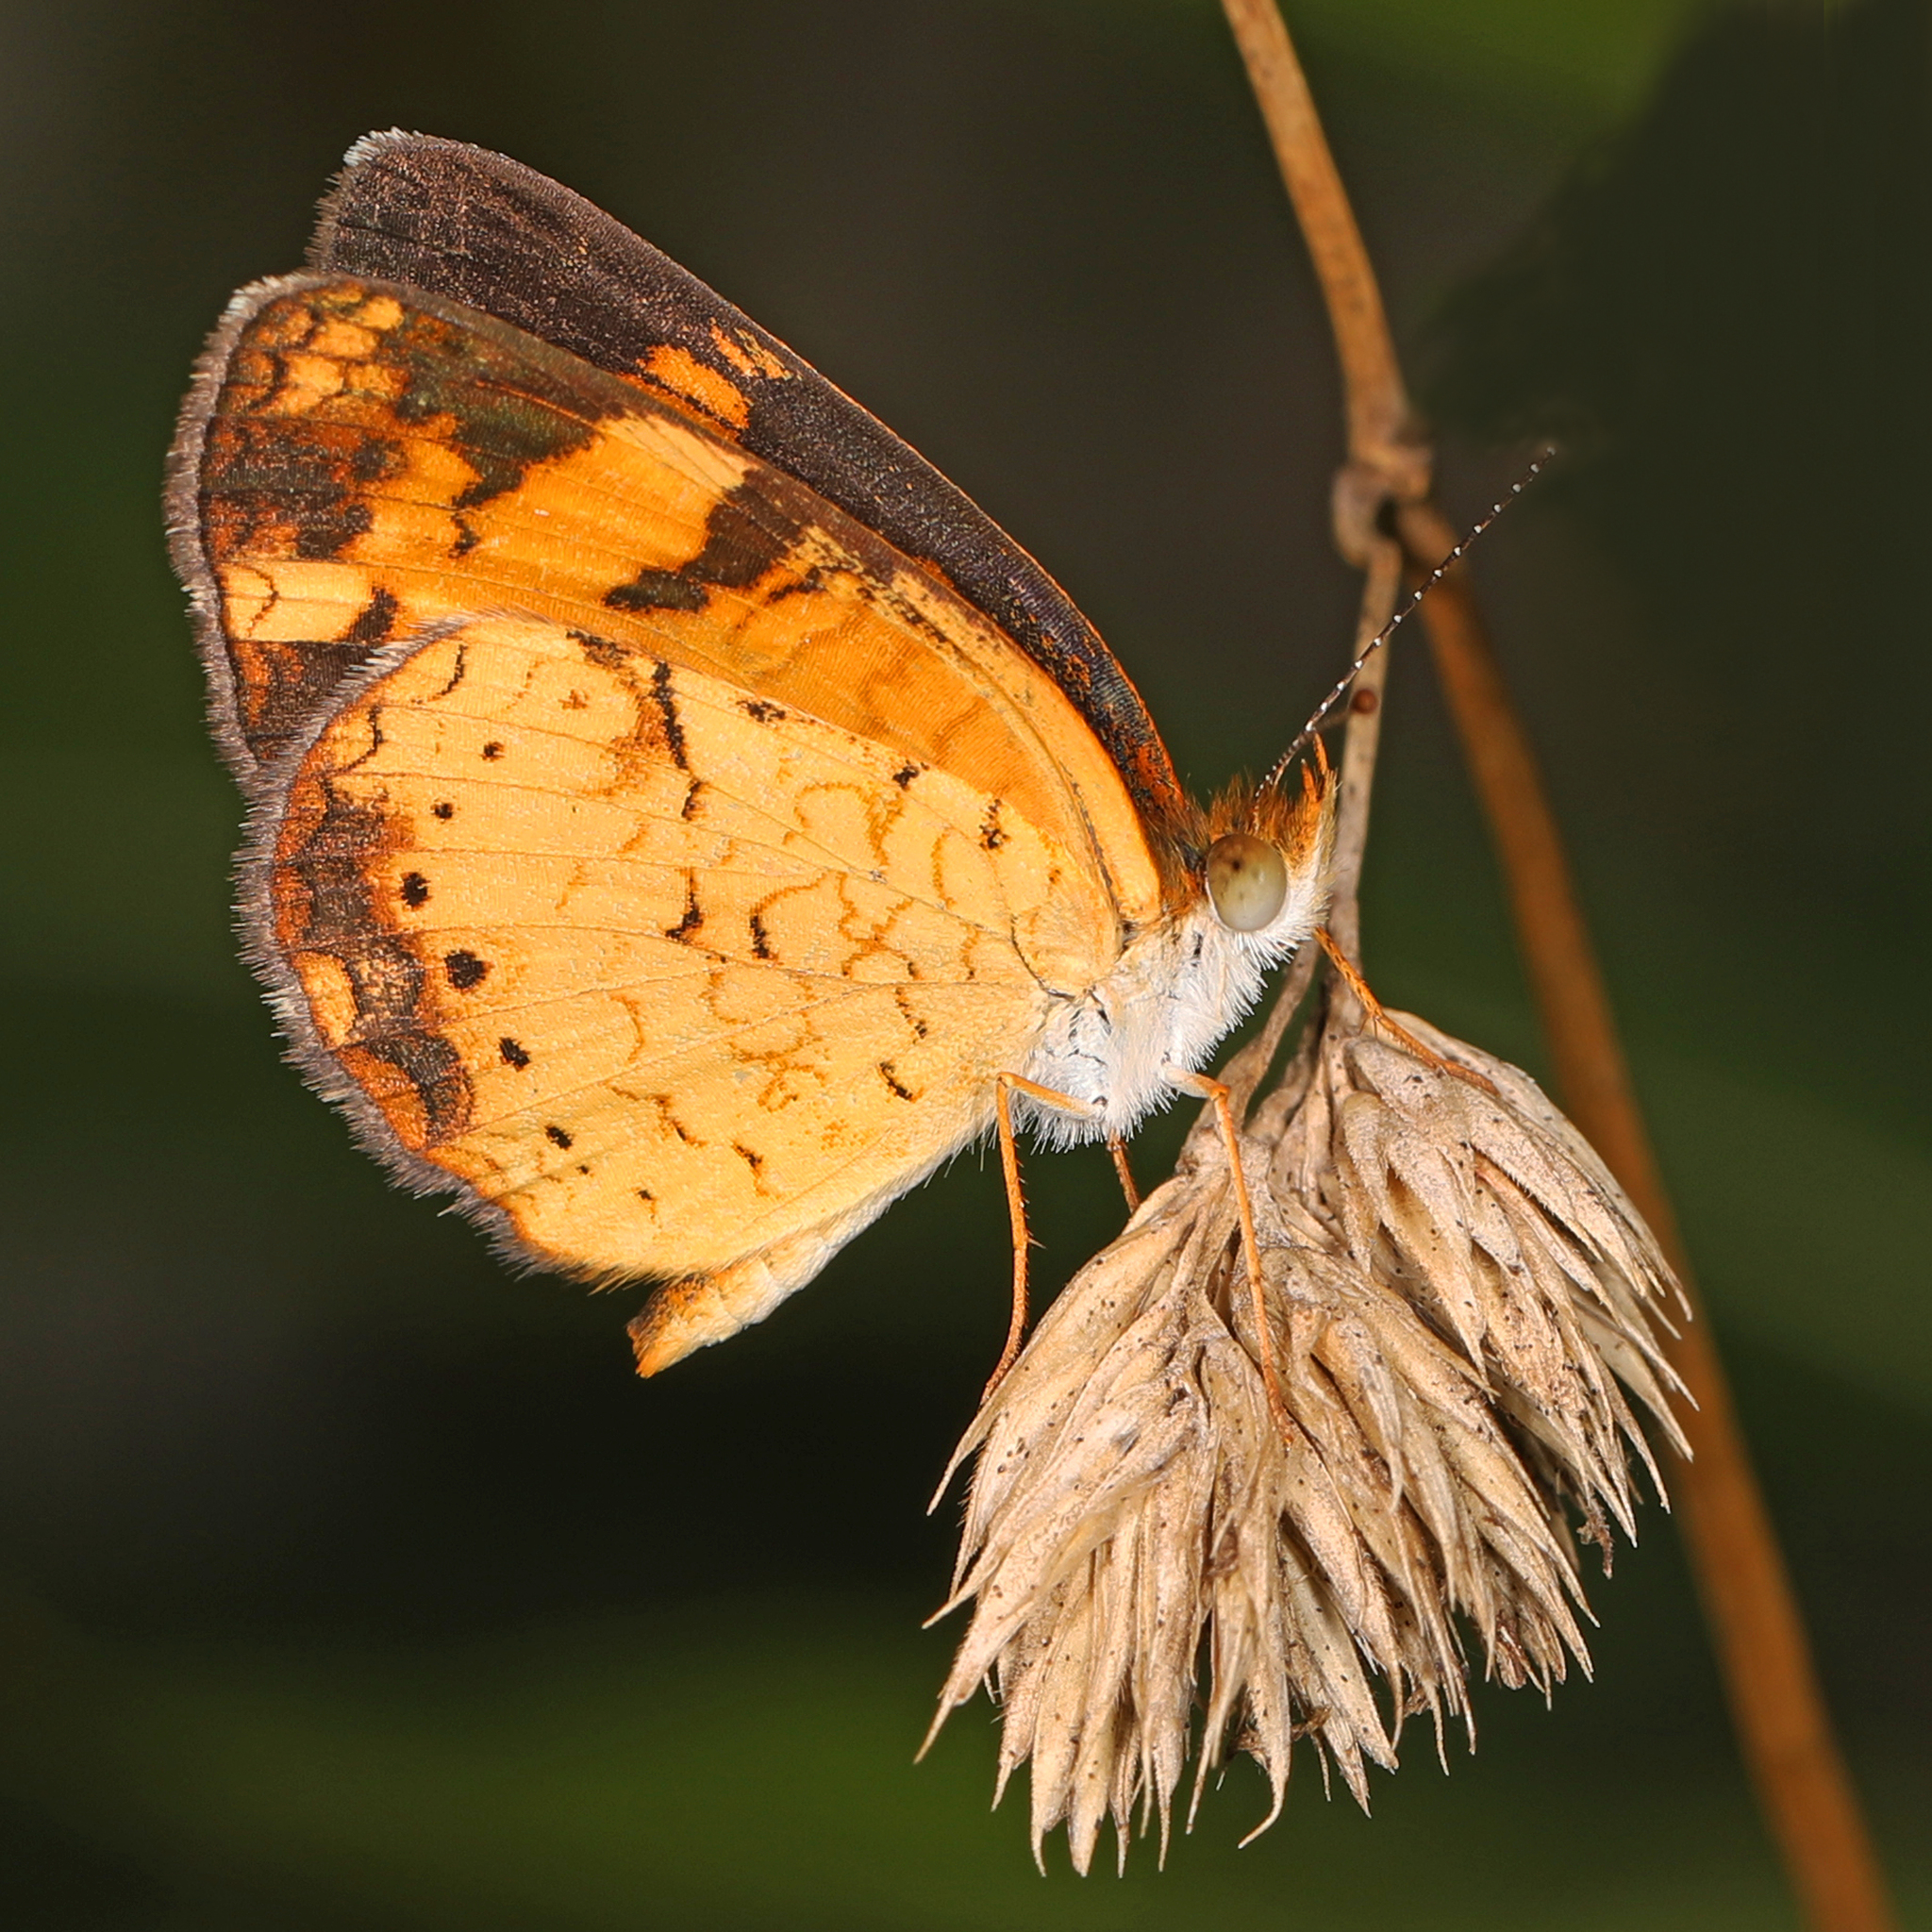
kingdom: Animalia
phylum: Arthropoda
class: Insecta
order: Lepidoptera
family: Nymphalidae
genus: Phyciodes
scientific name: Phyciodes tharos
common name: Pearl crescent
